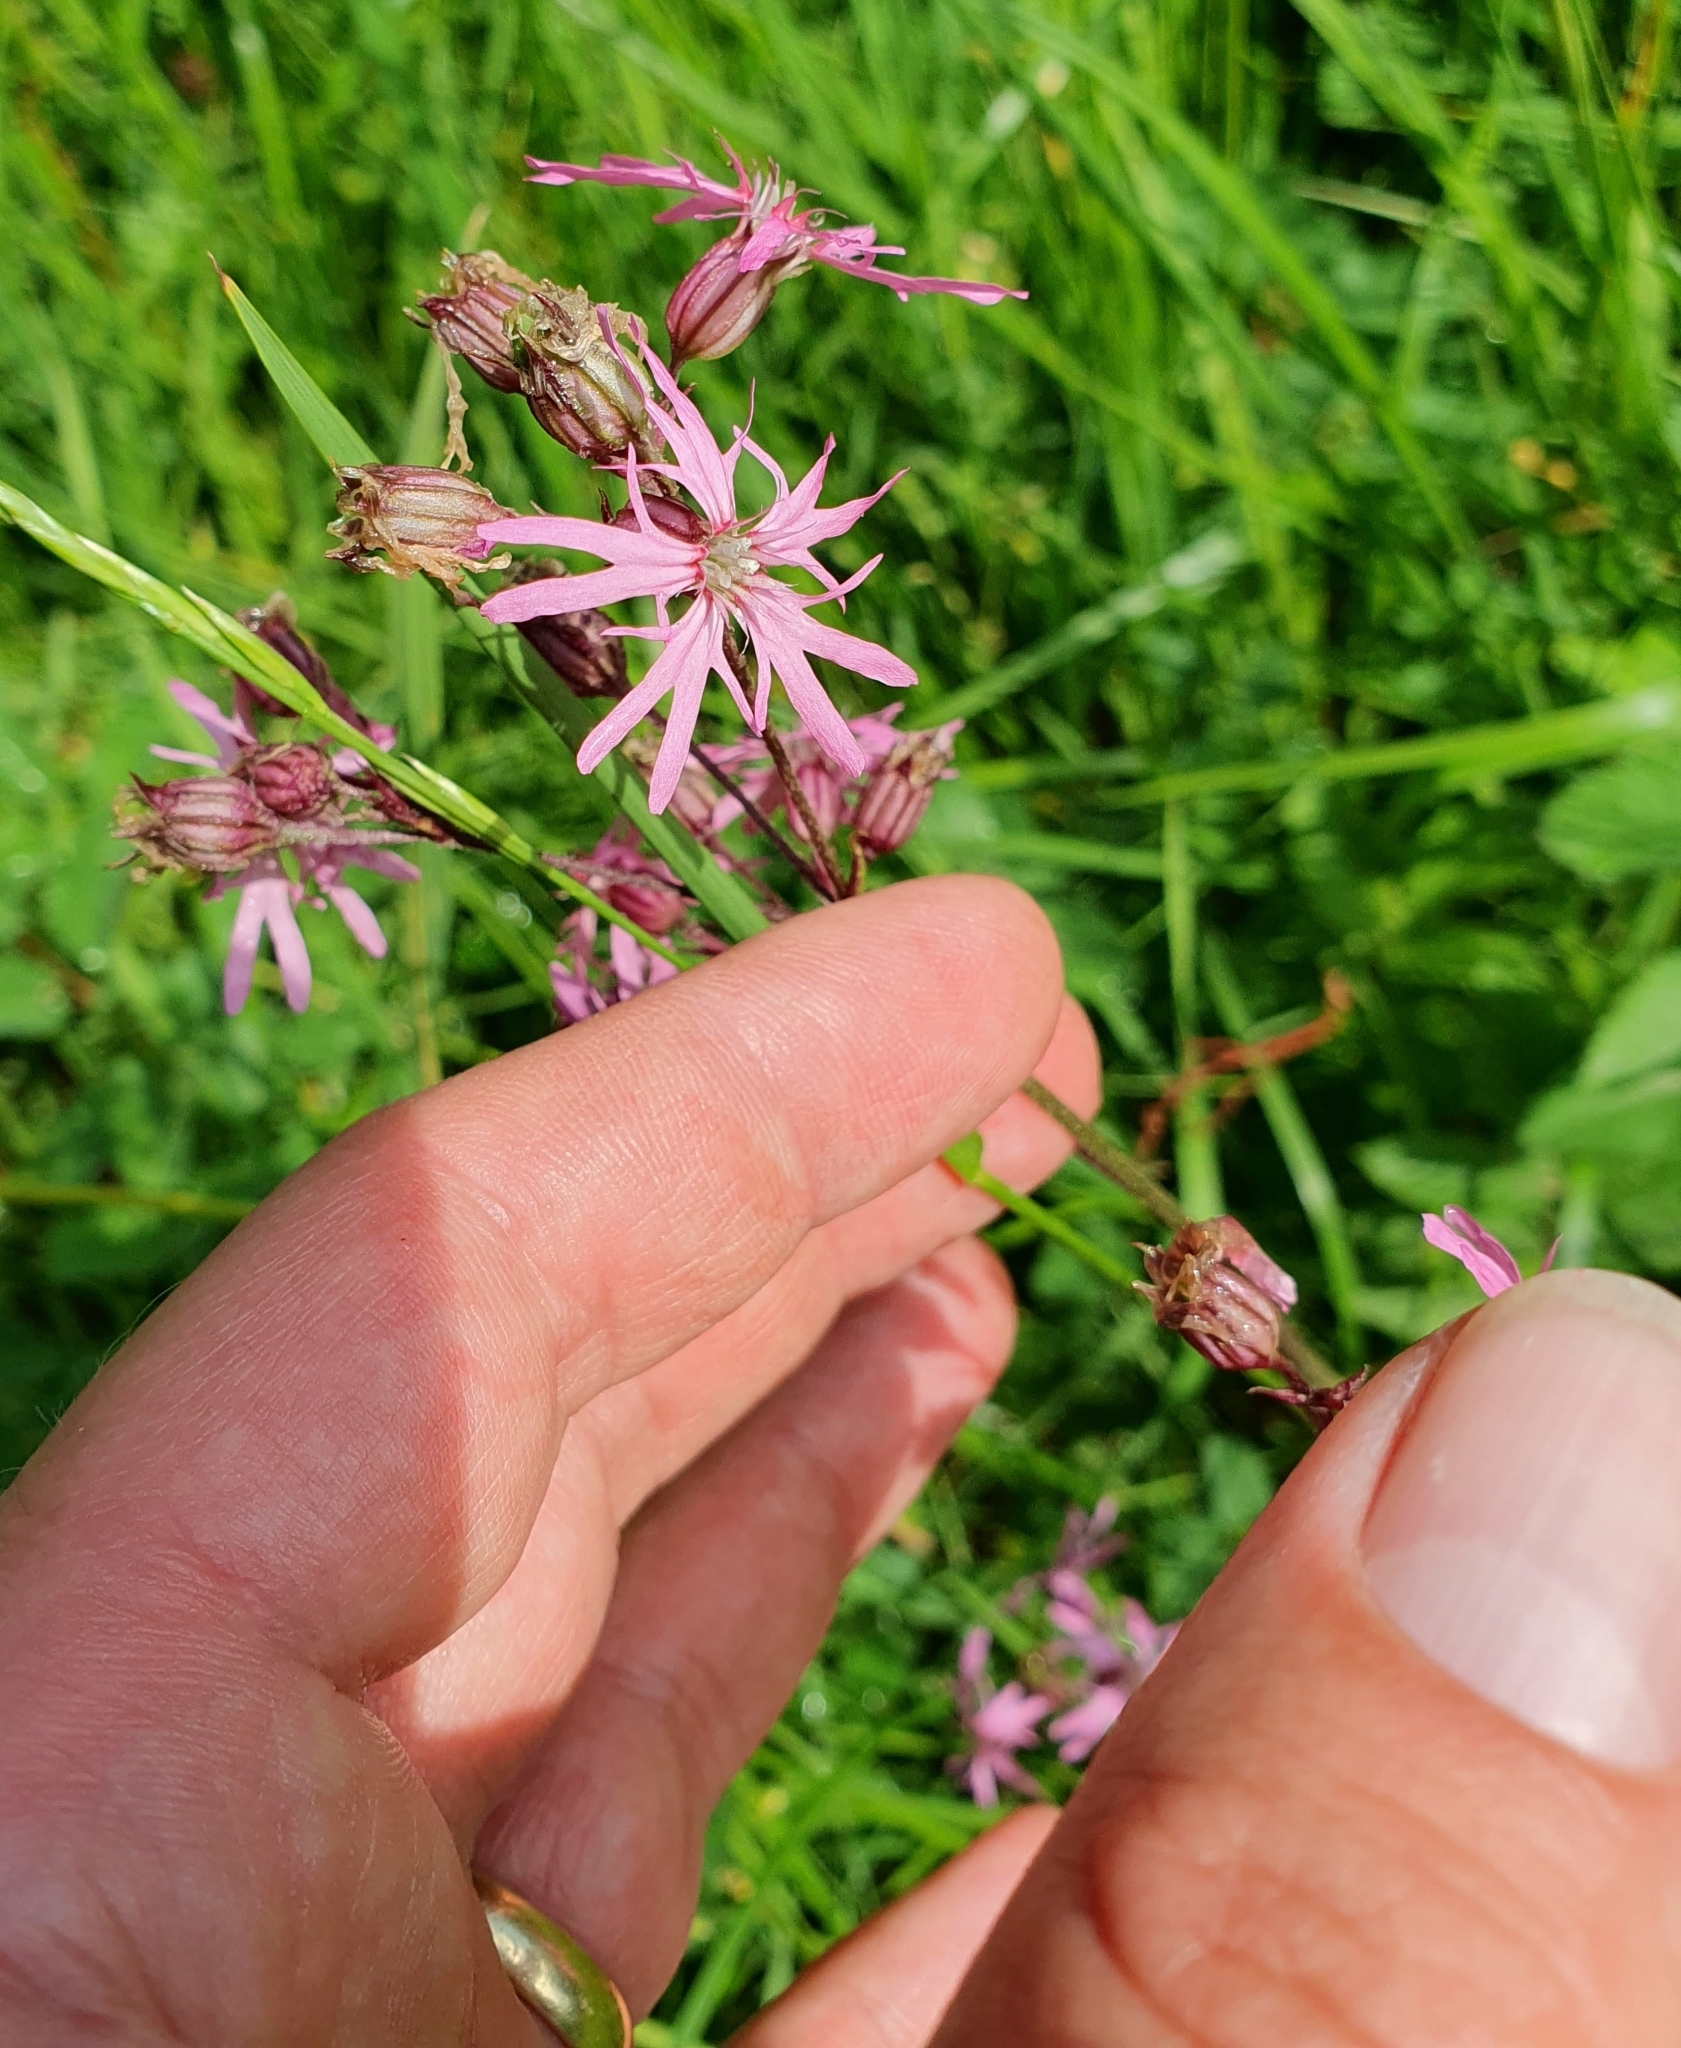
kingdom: Plantae
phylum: Tracheophyta
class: Magnoliopsida
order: Caryophyllales
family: Caryophyllaceae
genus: Silene
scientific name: Silene flos-cuculi
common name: Ragged-robin
